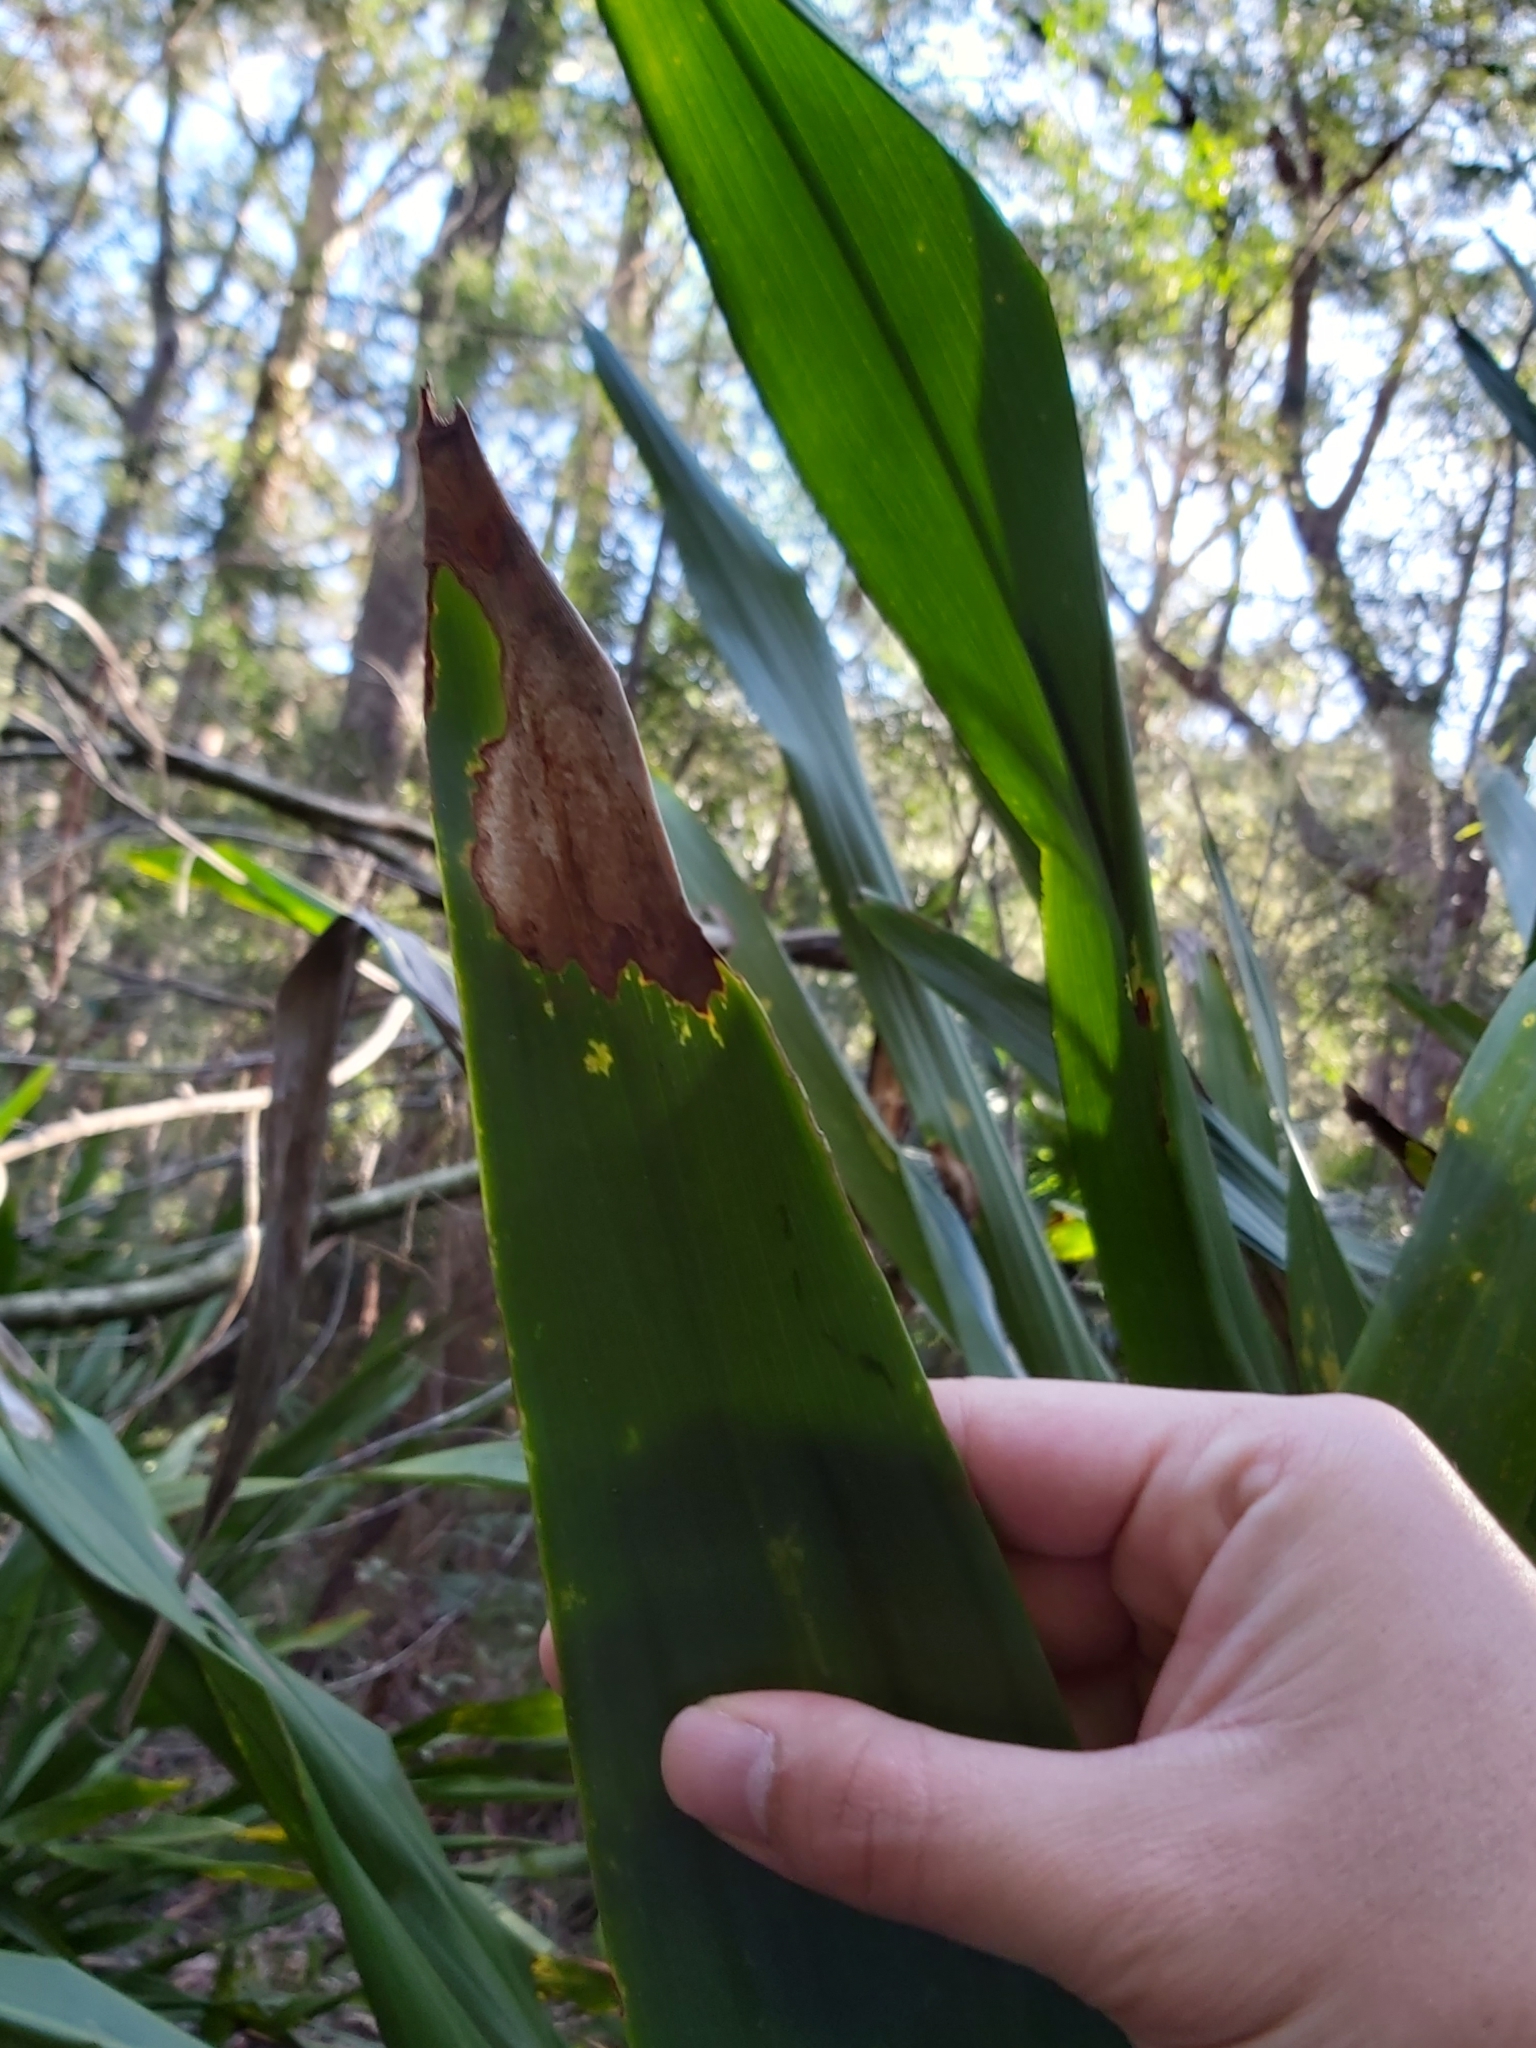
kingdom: Plantae
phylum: Tracheophyta
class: Liliopsida
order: Asparagales
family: Doryanthaceae
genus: Doryanthes
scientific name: Doryanthes excelsa
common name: Giant-lily
